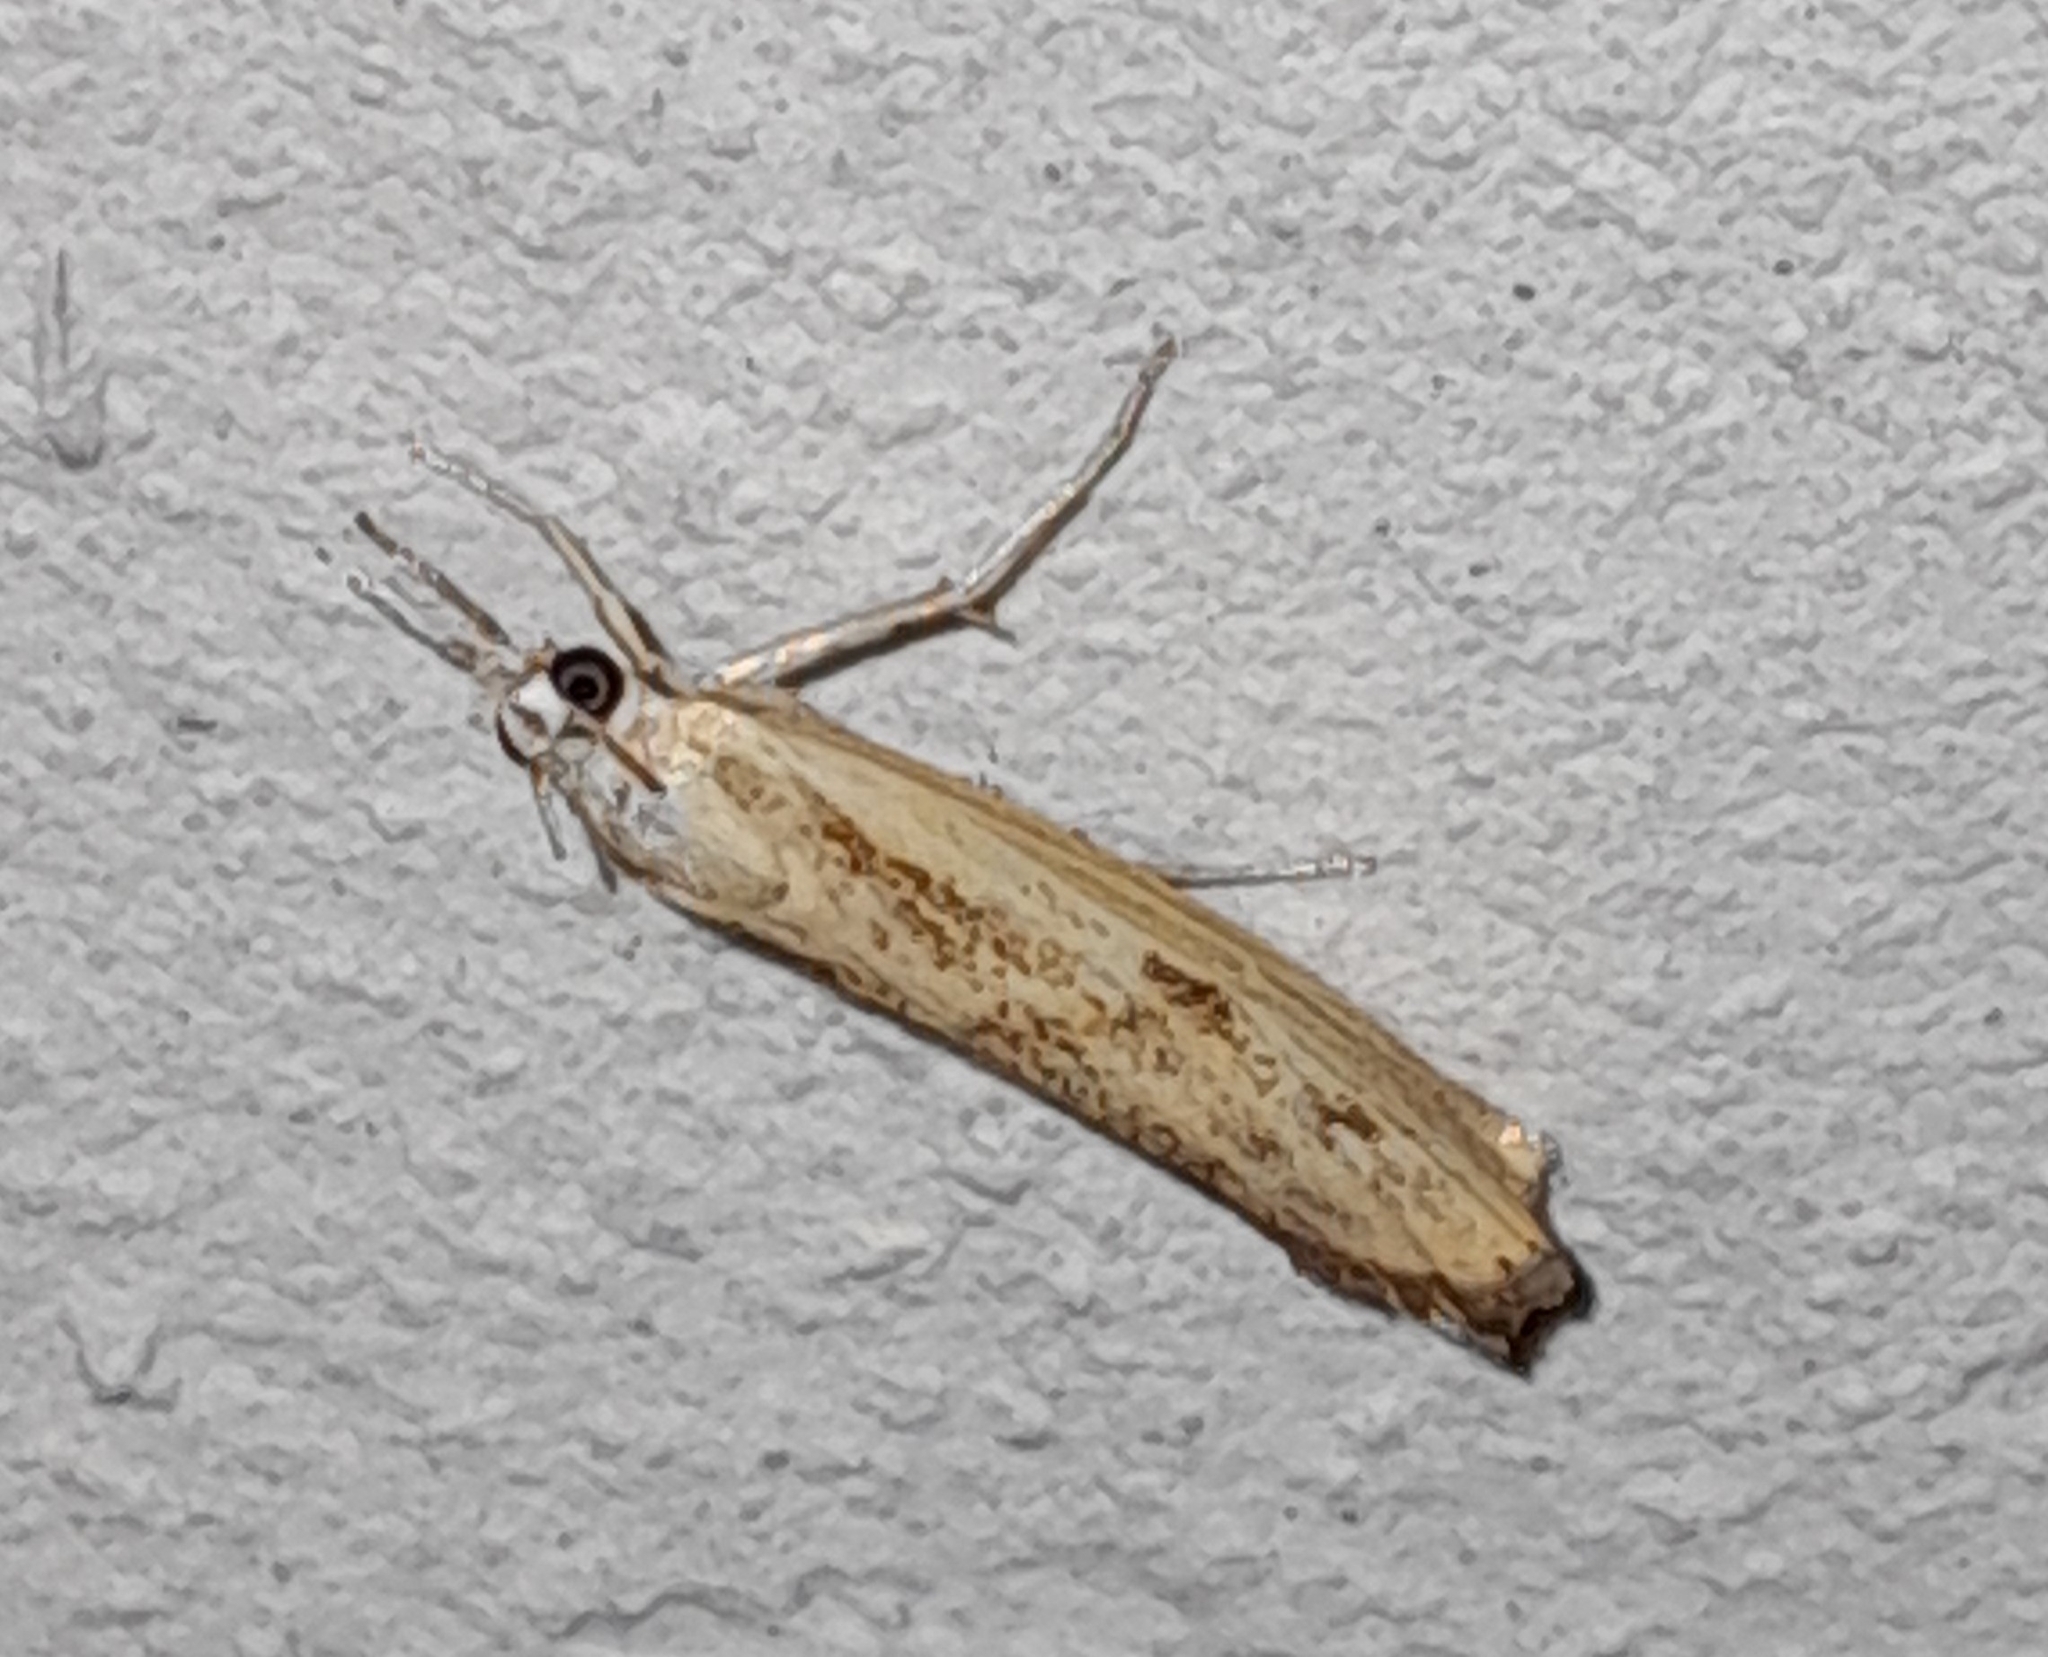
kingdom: Animalia
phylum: Arthropoda
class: Insecta
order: Lepidoptera
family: Crambidae
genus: Agriphila
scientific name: Agriphila inquinatella
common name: Barred grass-veneer
